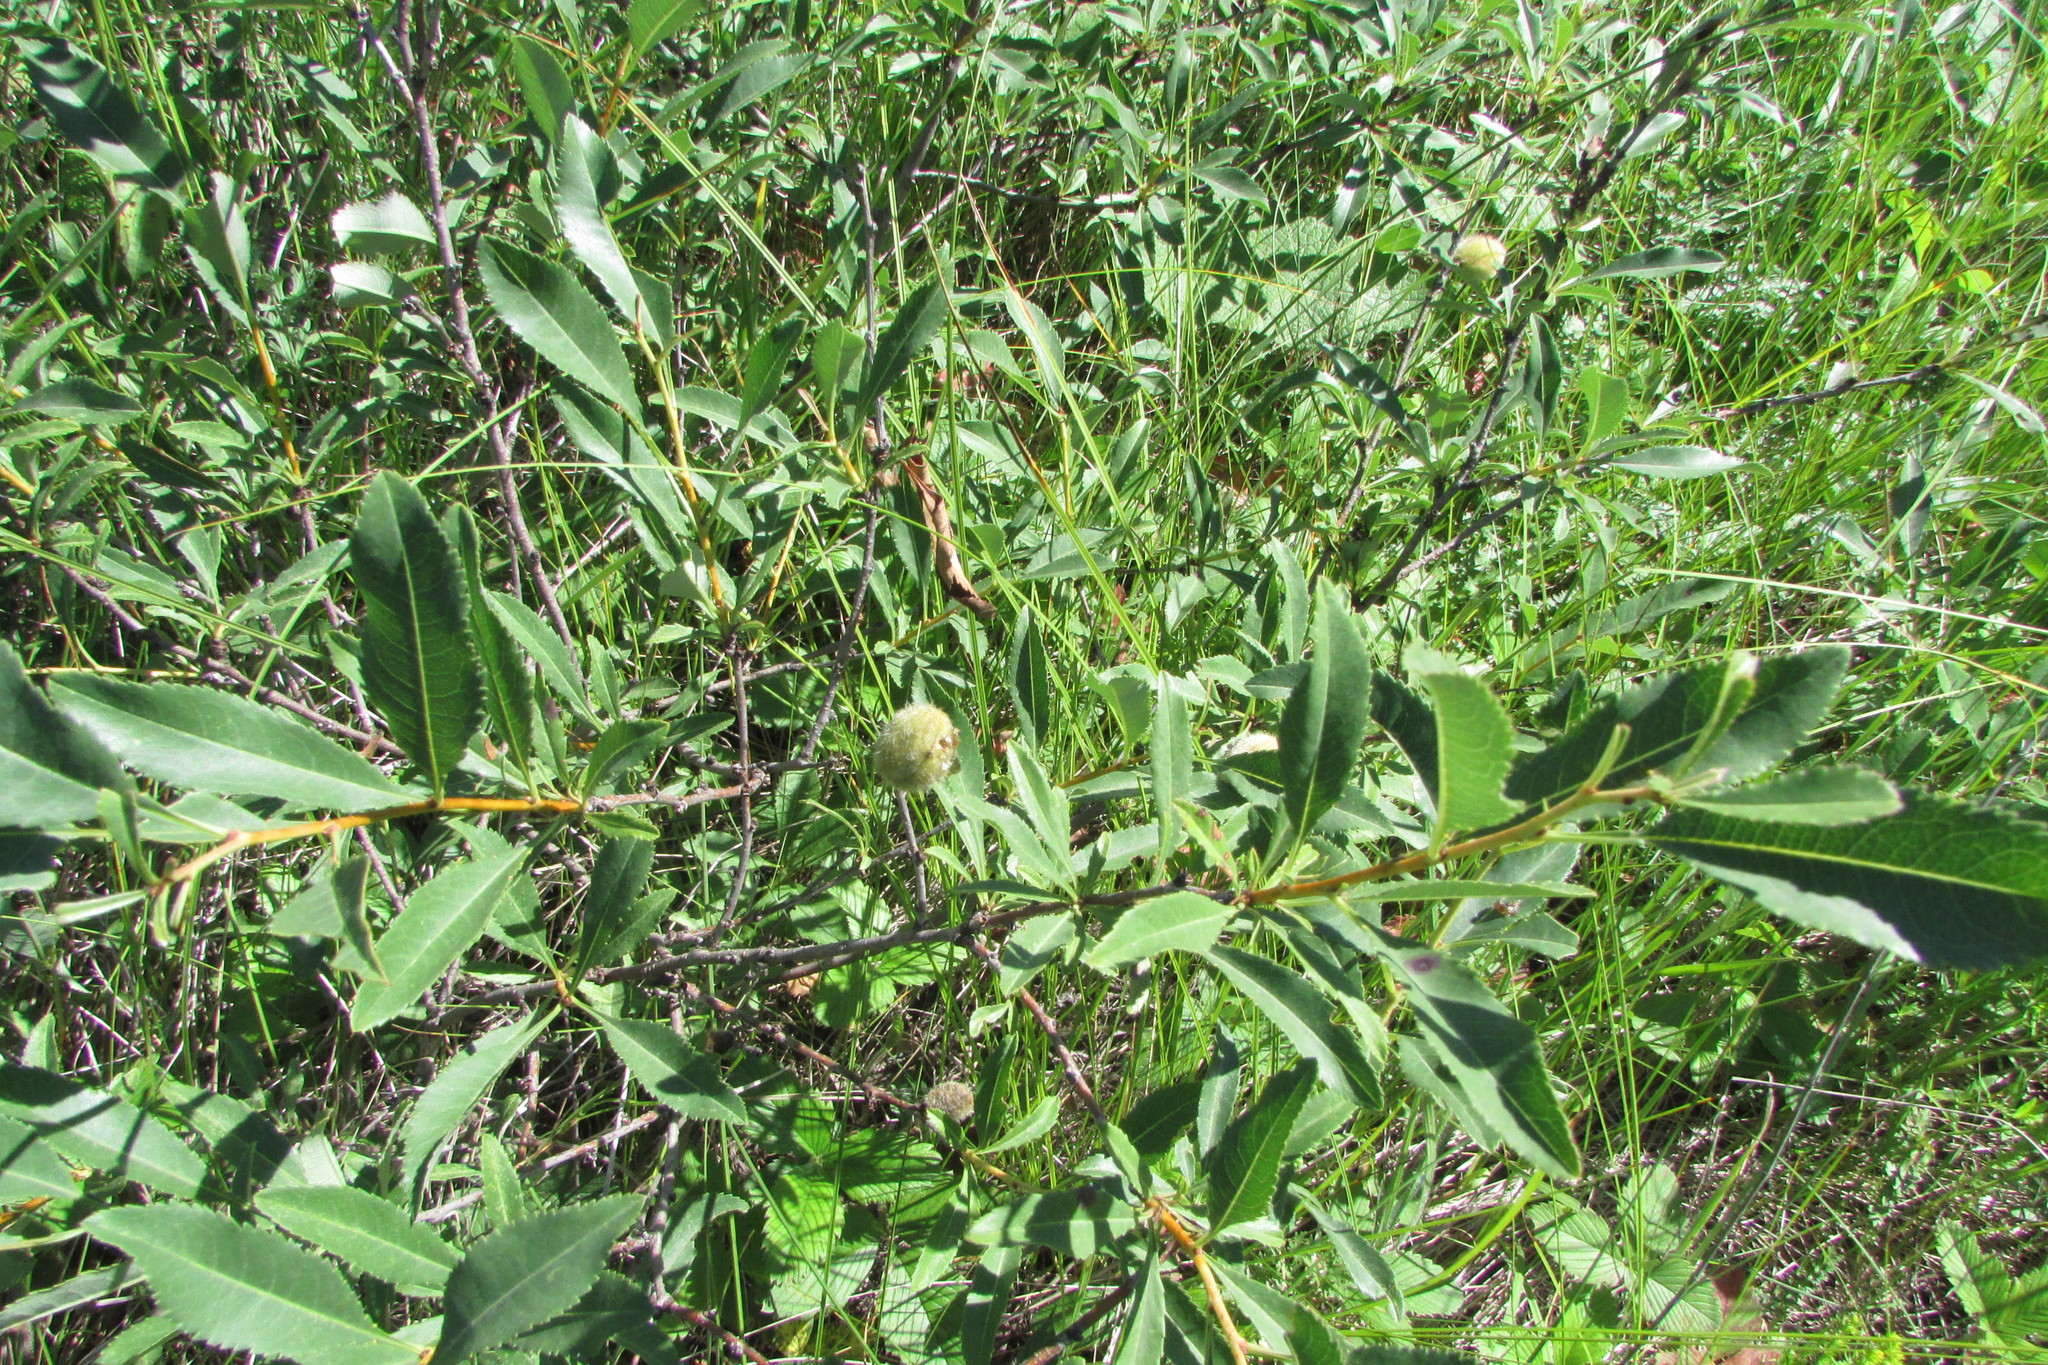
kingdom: Plantae
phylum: Tracheophyta
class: Magnoliopsida
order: Rosales
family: Rosaceae
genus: Prunus
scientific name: Prunus tenella
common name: Dwarf russian almond
